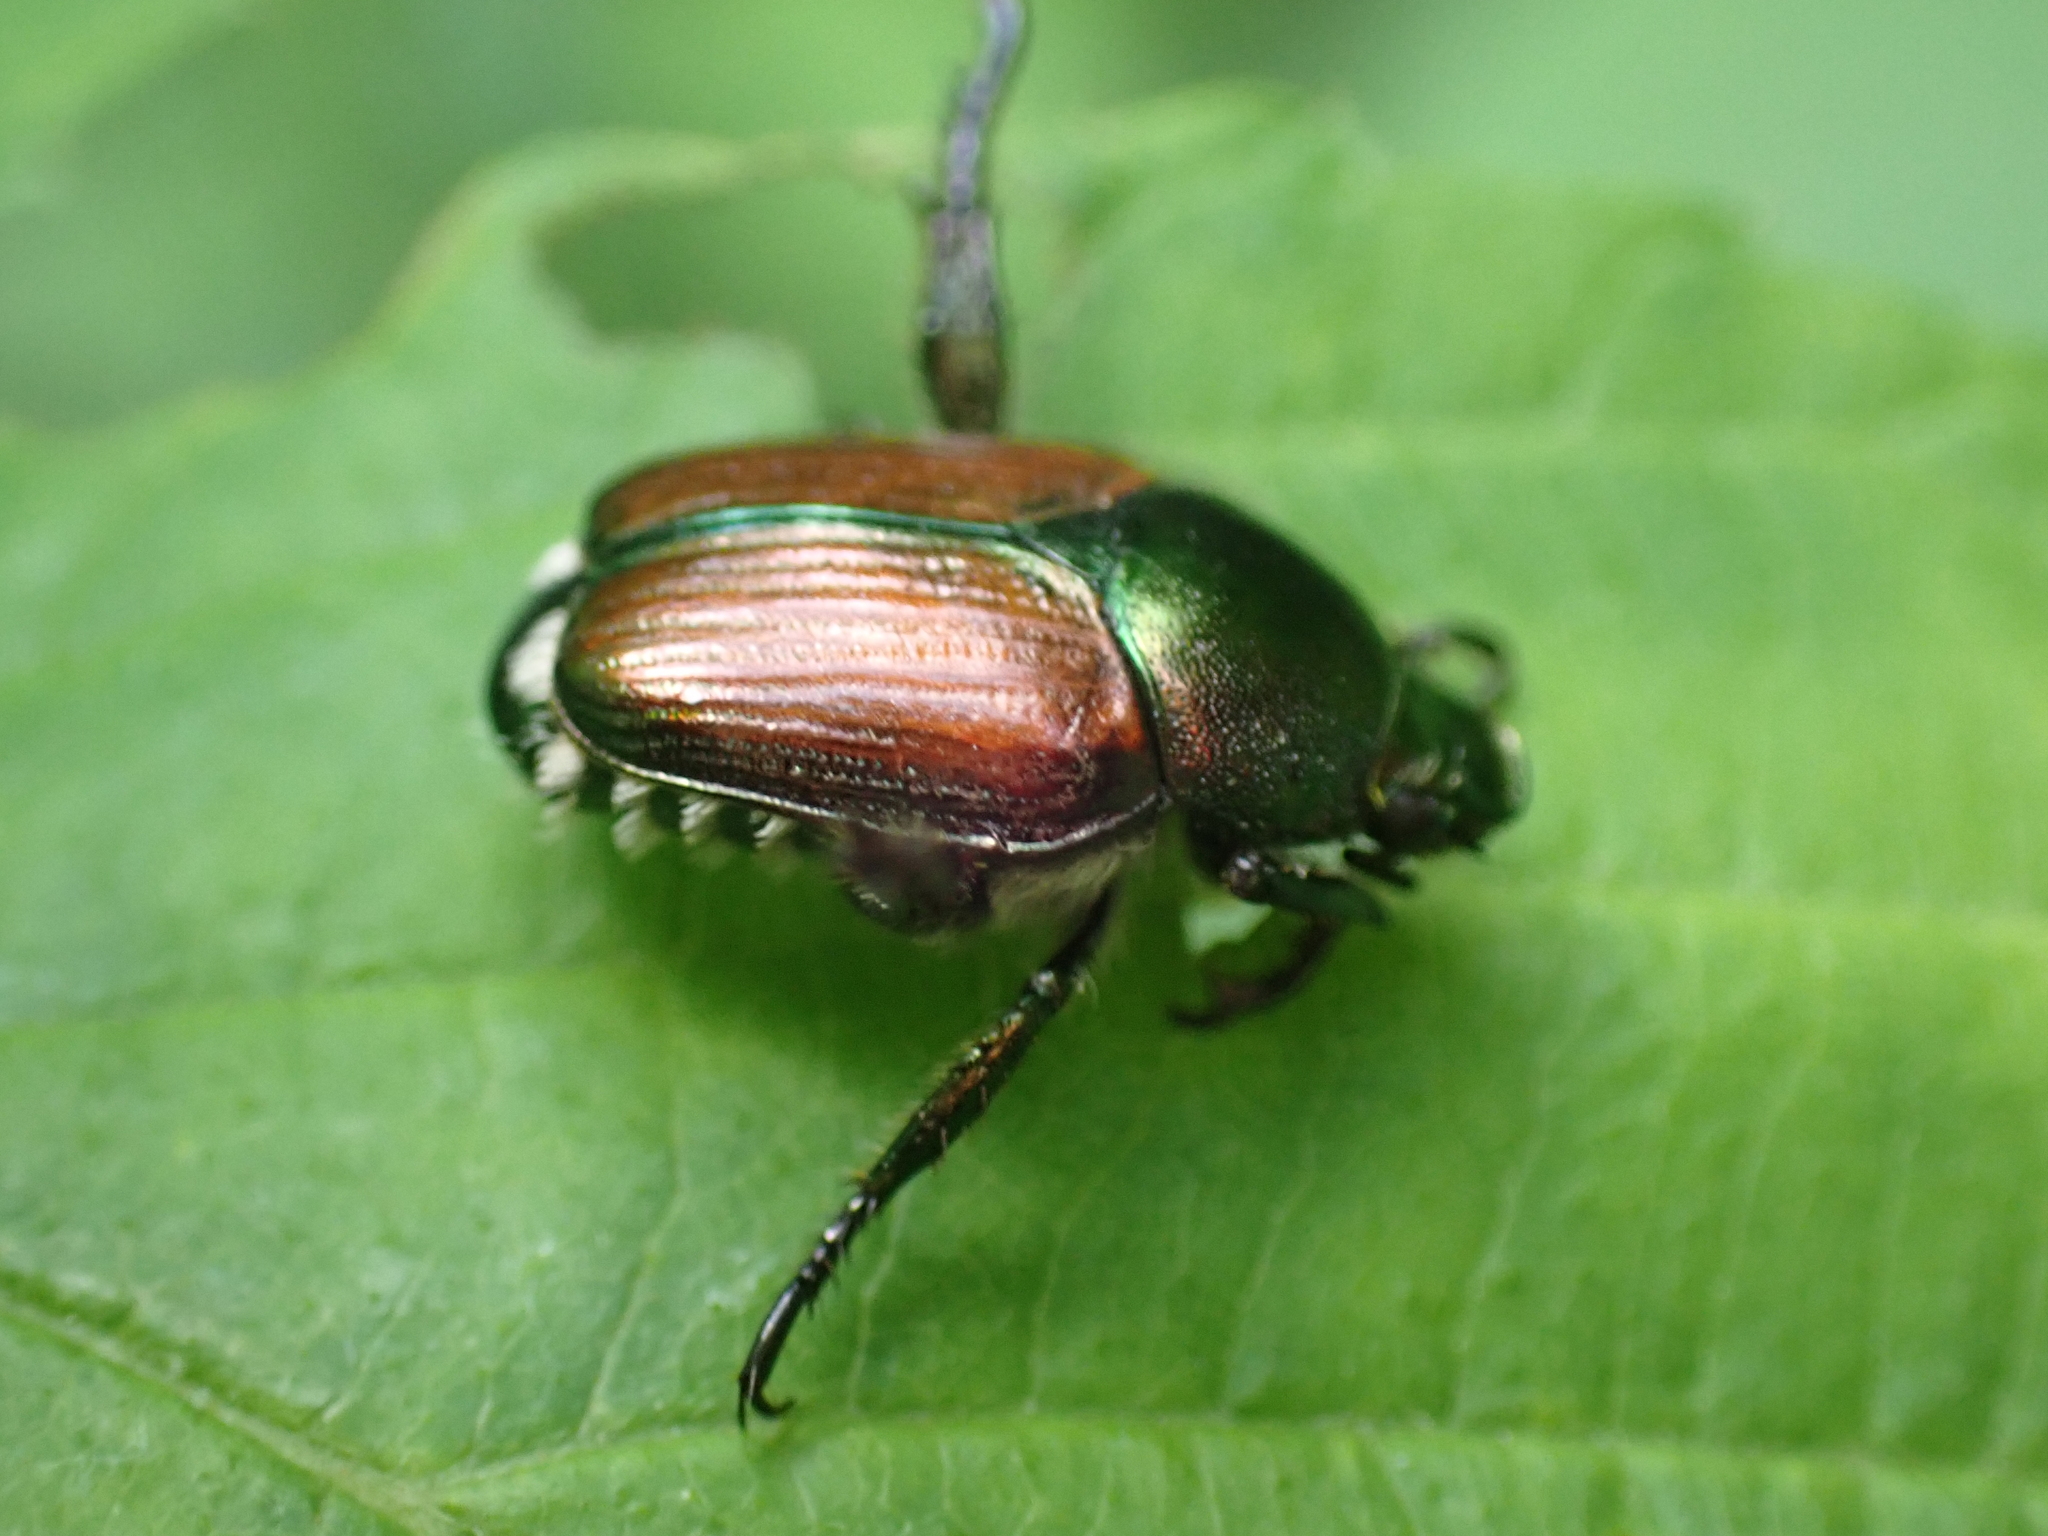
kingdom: Animalia
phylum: Arthropoda
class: Insecta
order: Coleoptera
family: Scarabaeidae
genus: Popillia
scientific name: Popillia japonica
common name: Japanese beetle
